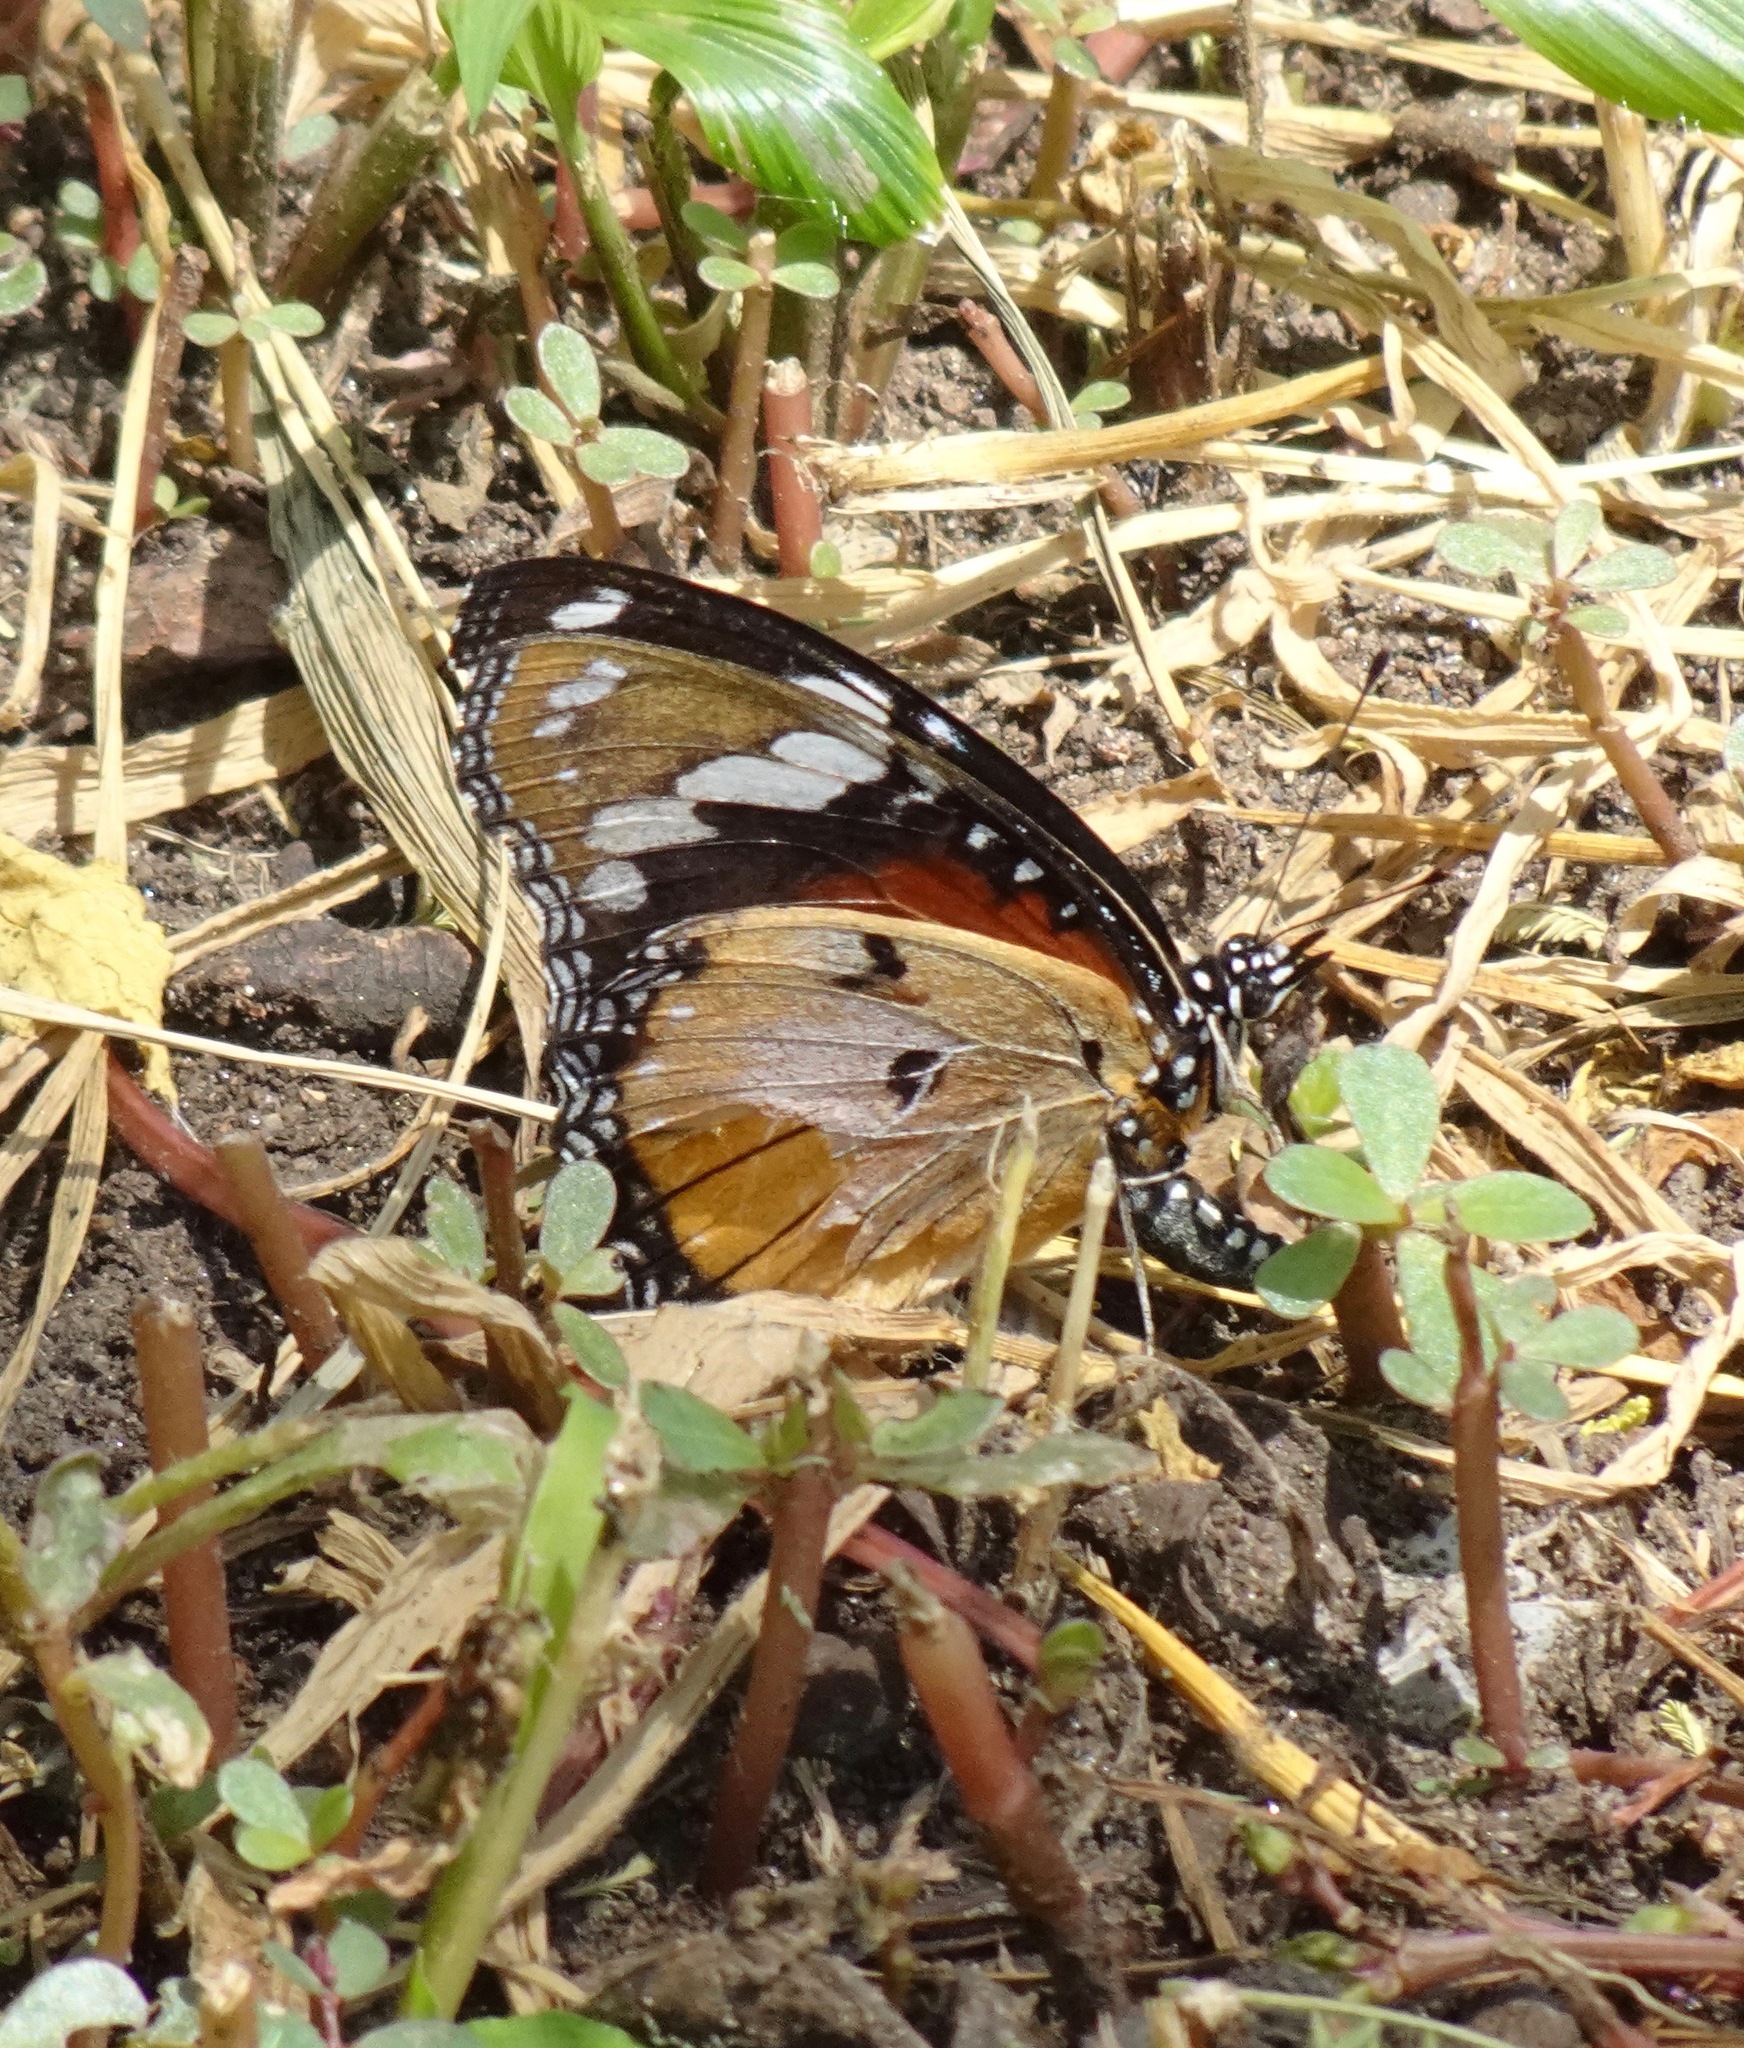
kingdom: Animalia
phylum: Arthropoda
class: Insecta
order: Lepidoptera
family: Nymphalidae
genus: Hypolimnas
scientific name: Hypolimnas misippus
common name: False plain tiger
